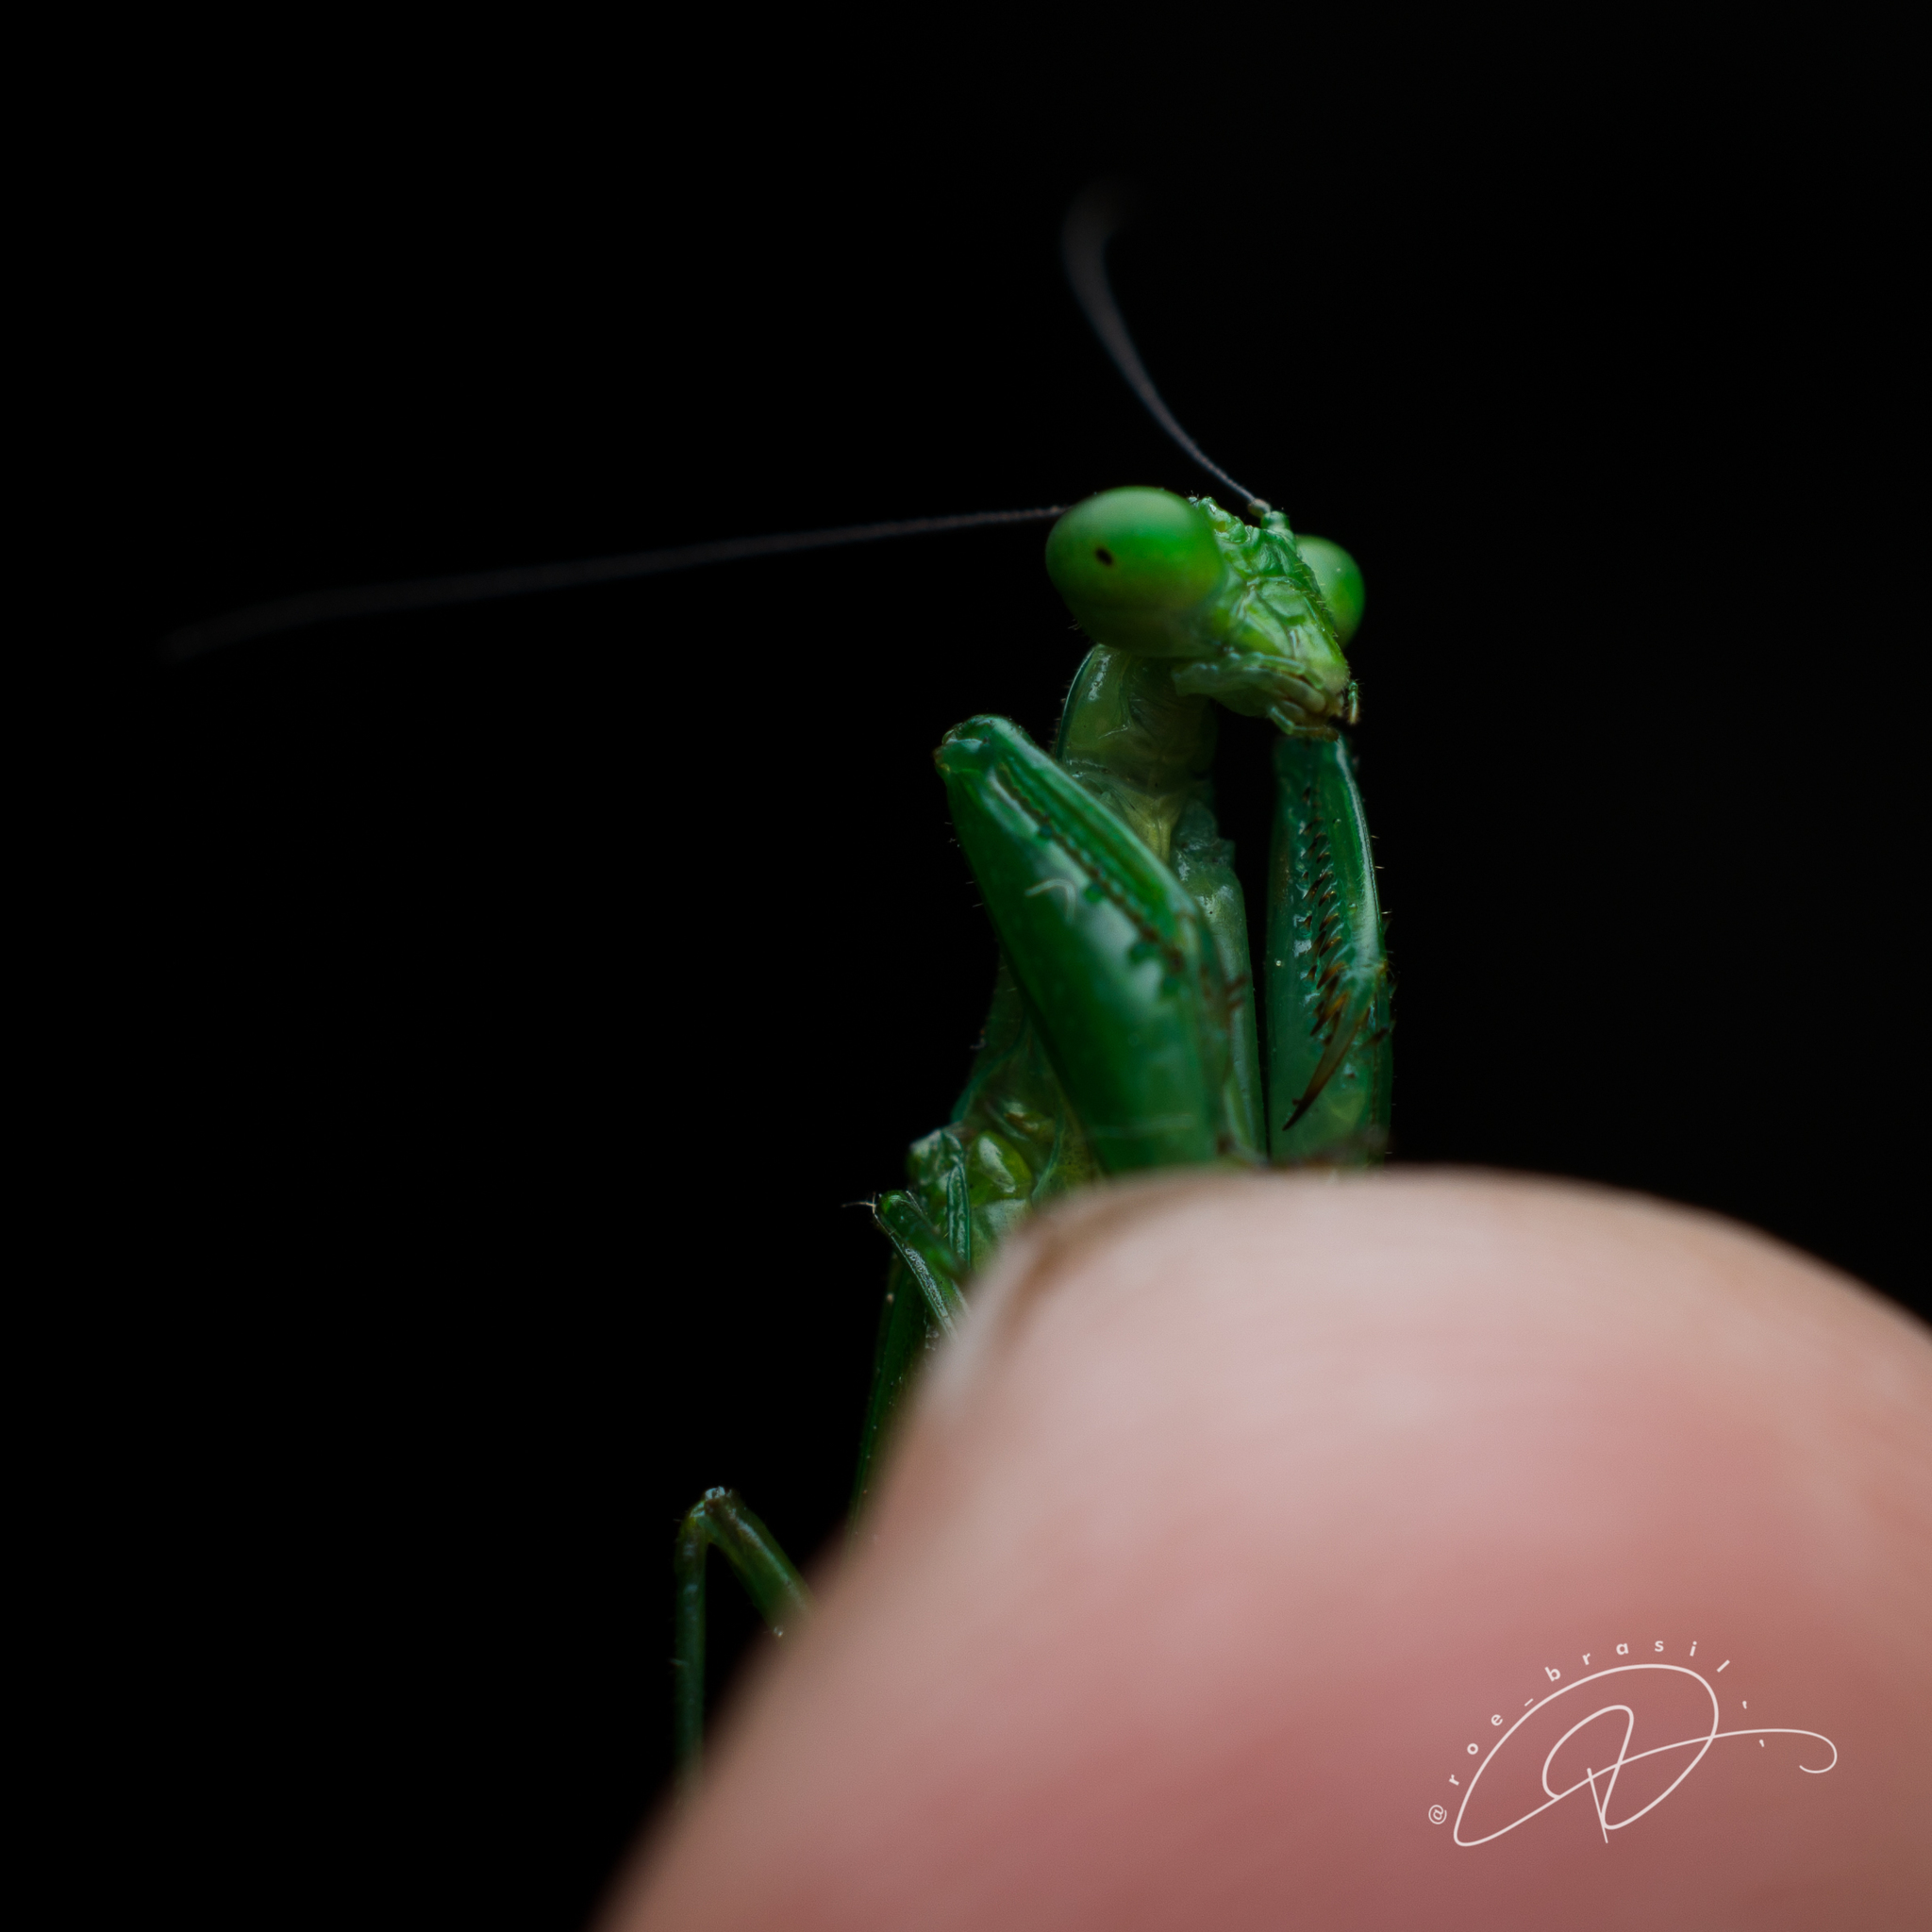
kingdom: Animalia
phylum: Arthropoda
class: Insecta
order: Mantodea
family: Acanthopidae
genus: Acontista
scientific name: Acontista concinna
